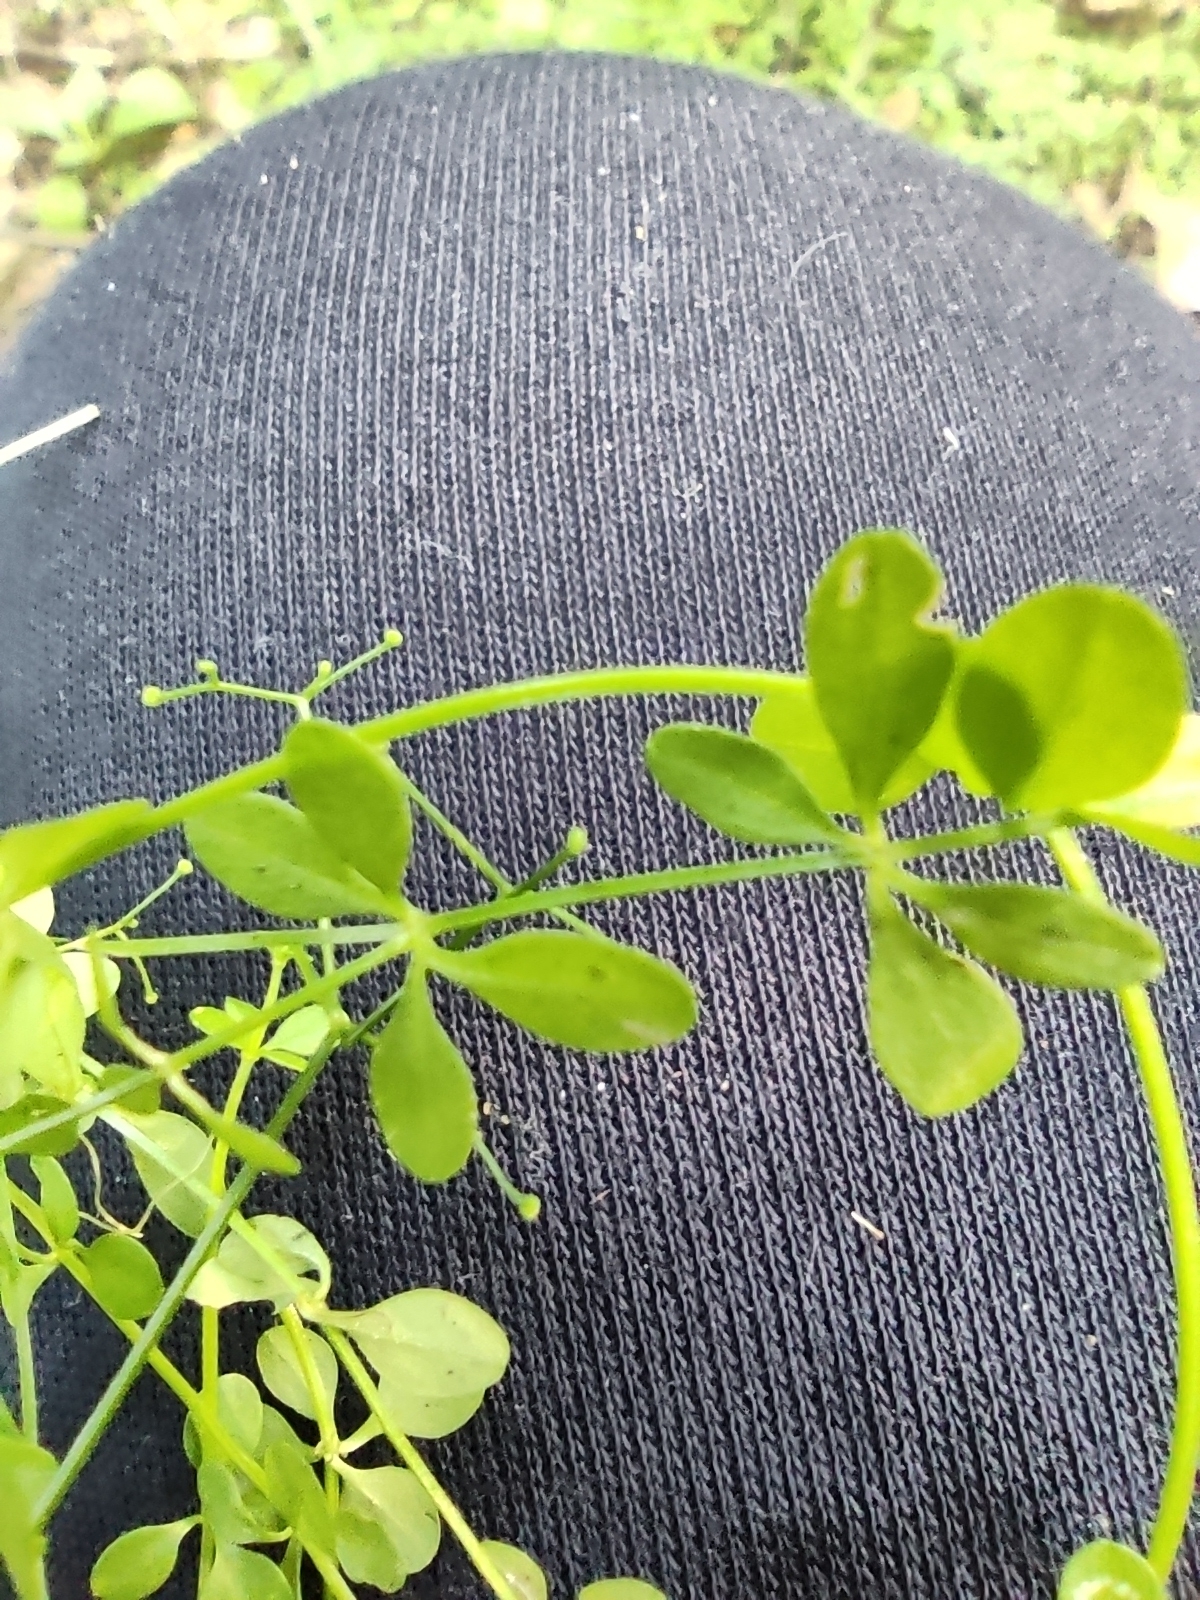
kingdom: Plantae
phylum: Tracheophyta
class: Magnoliopsida
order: Gentianales
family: Rubiaceae
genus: Galium
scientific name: Galium palustre
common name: Common marsh-bedstraw
